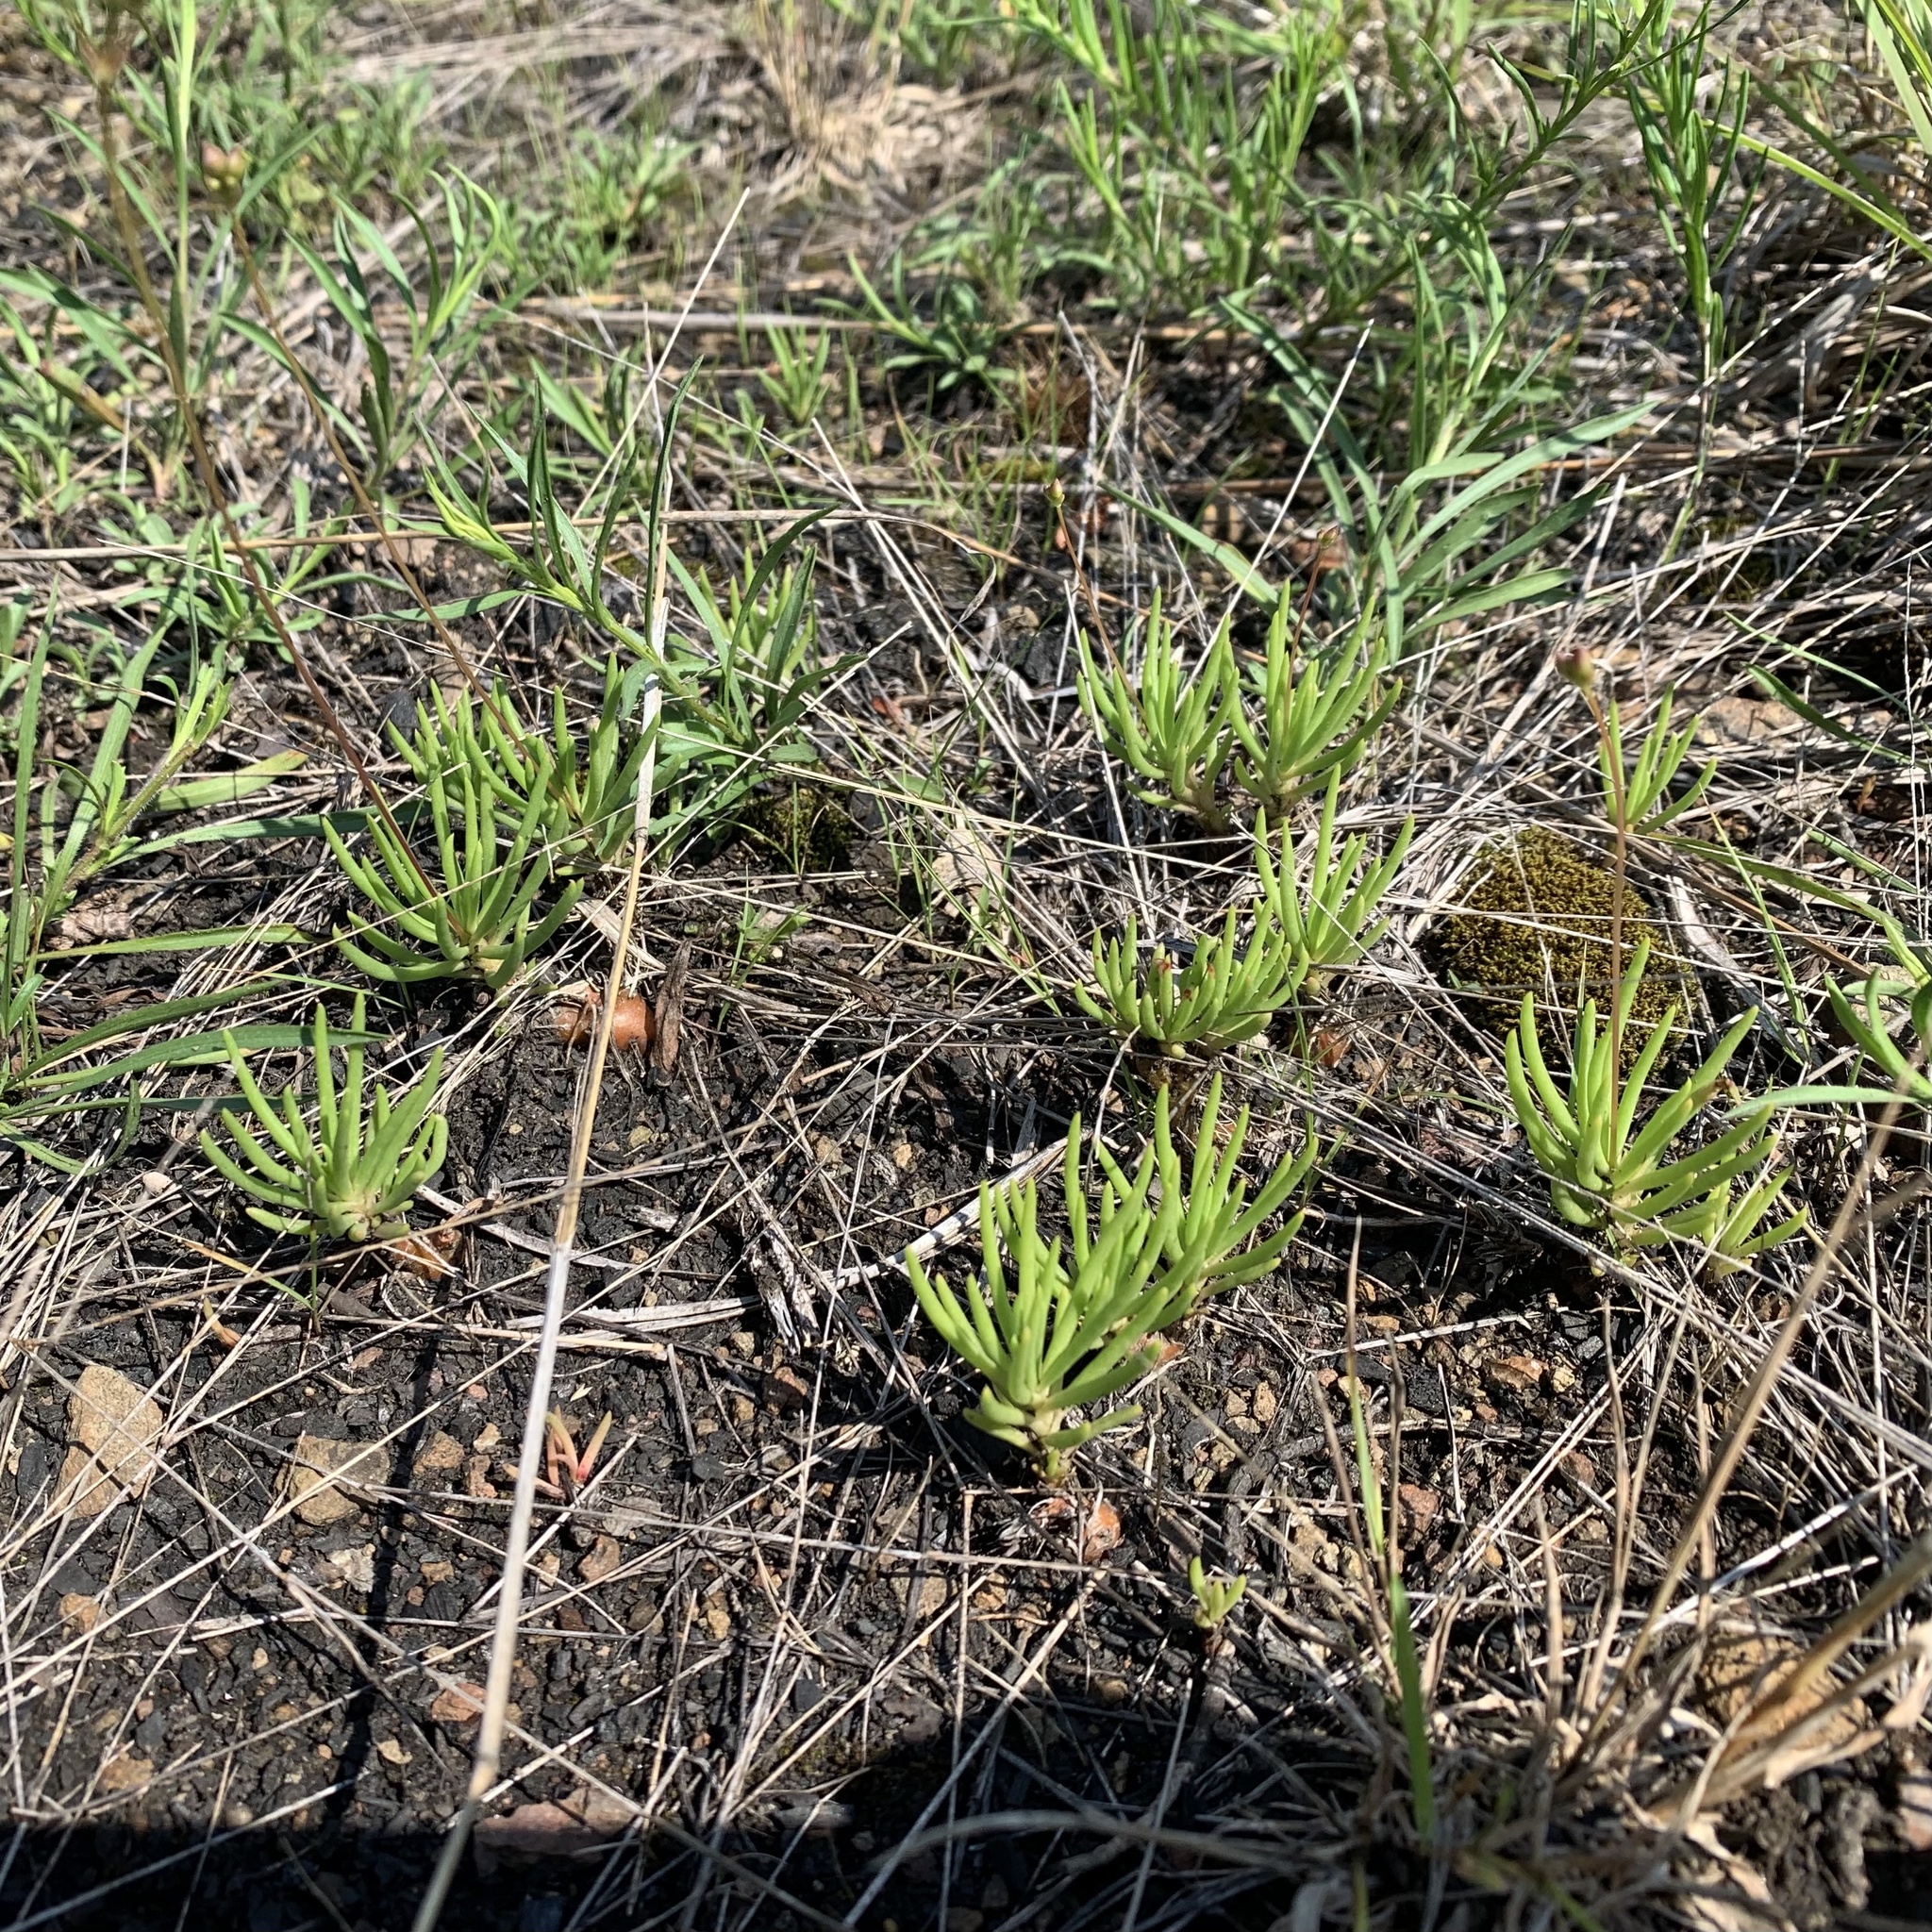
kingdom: Plantae
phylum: Tracheophyta
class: Magnoliopsida
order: Caryophyllales
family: Montiaceae
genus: Phemeranthus
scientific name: Phemeranthus teretifolius
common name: Quill fameflower
